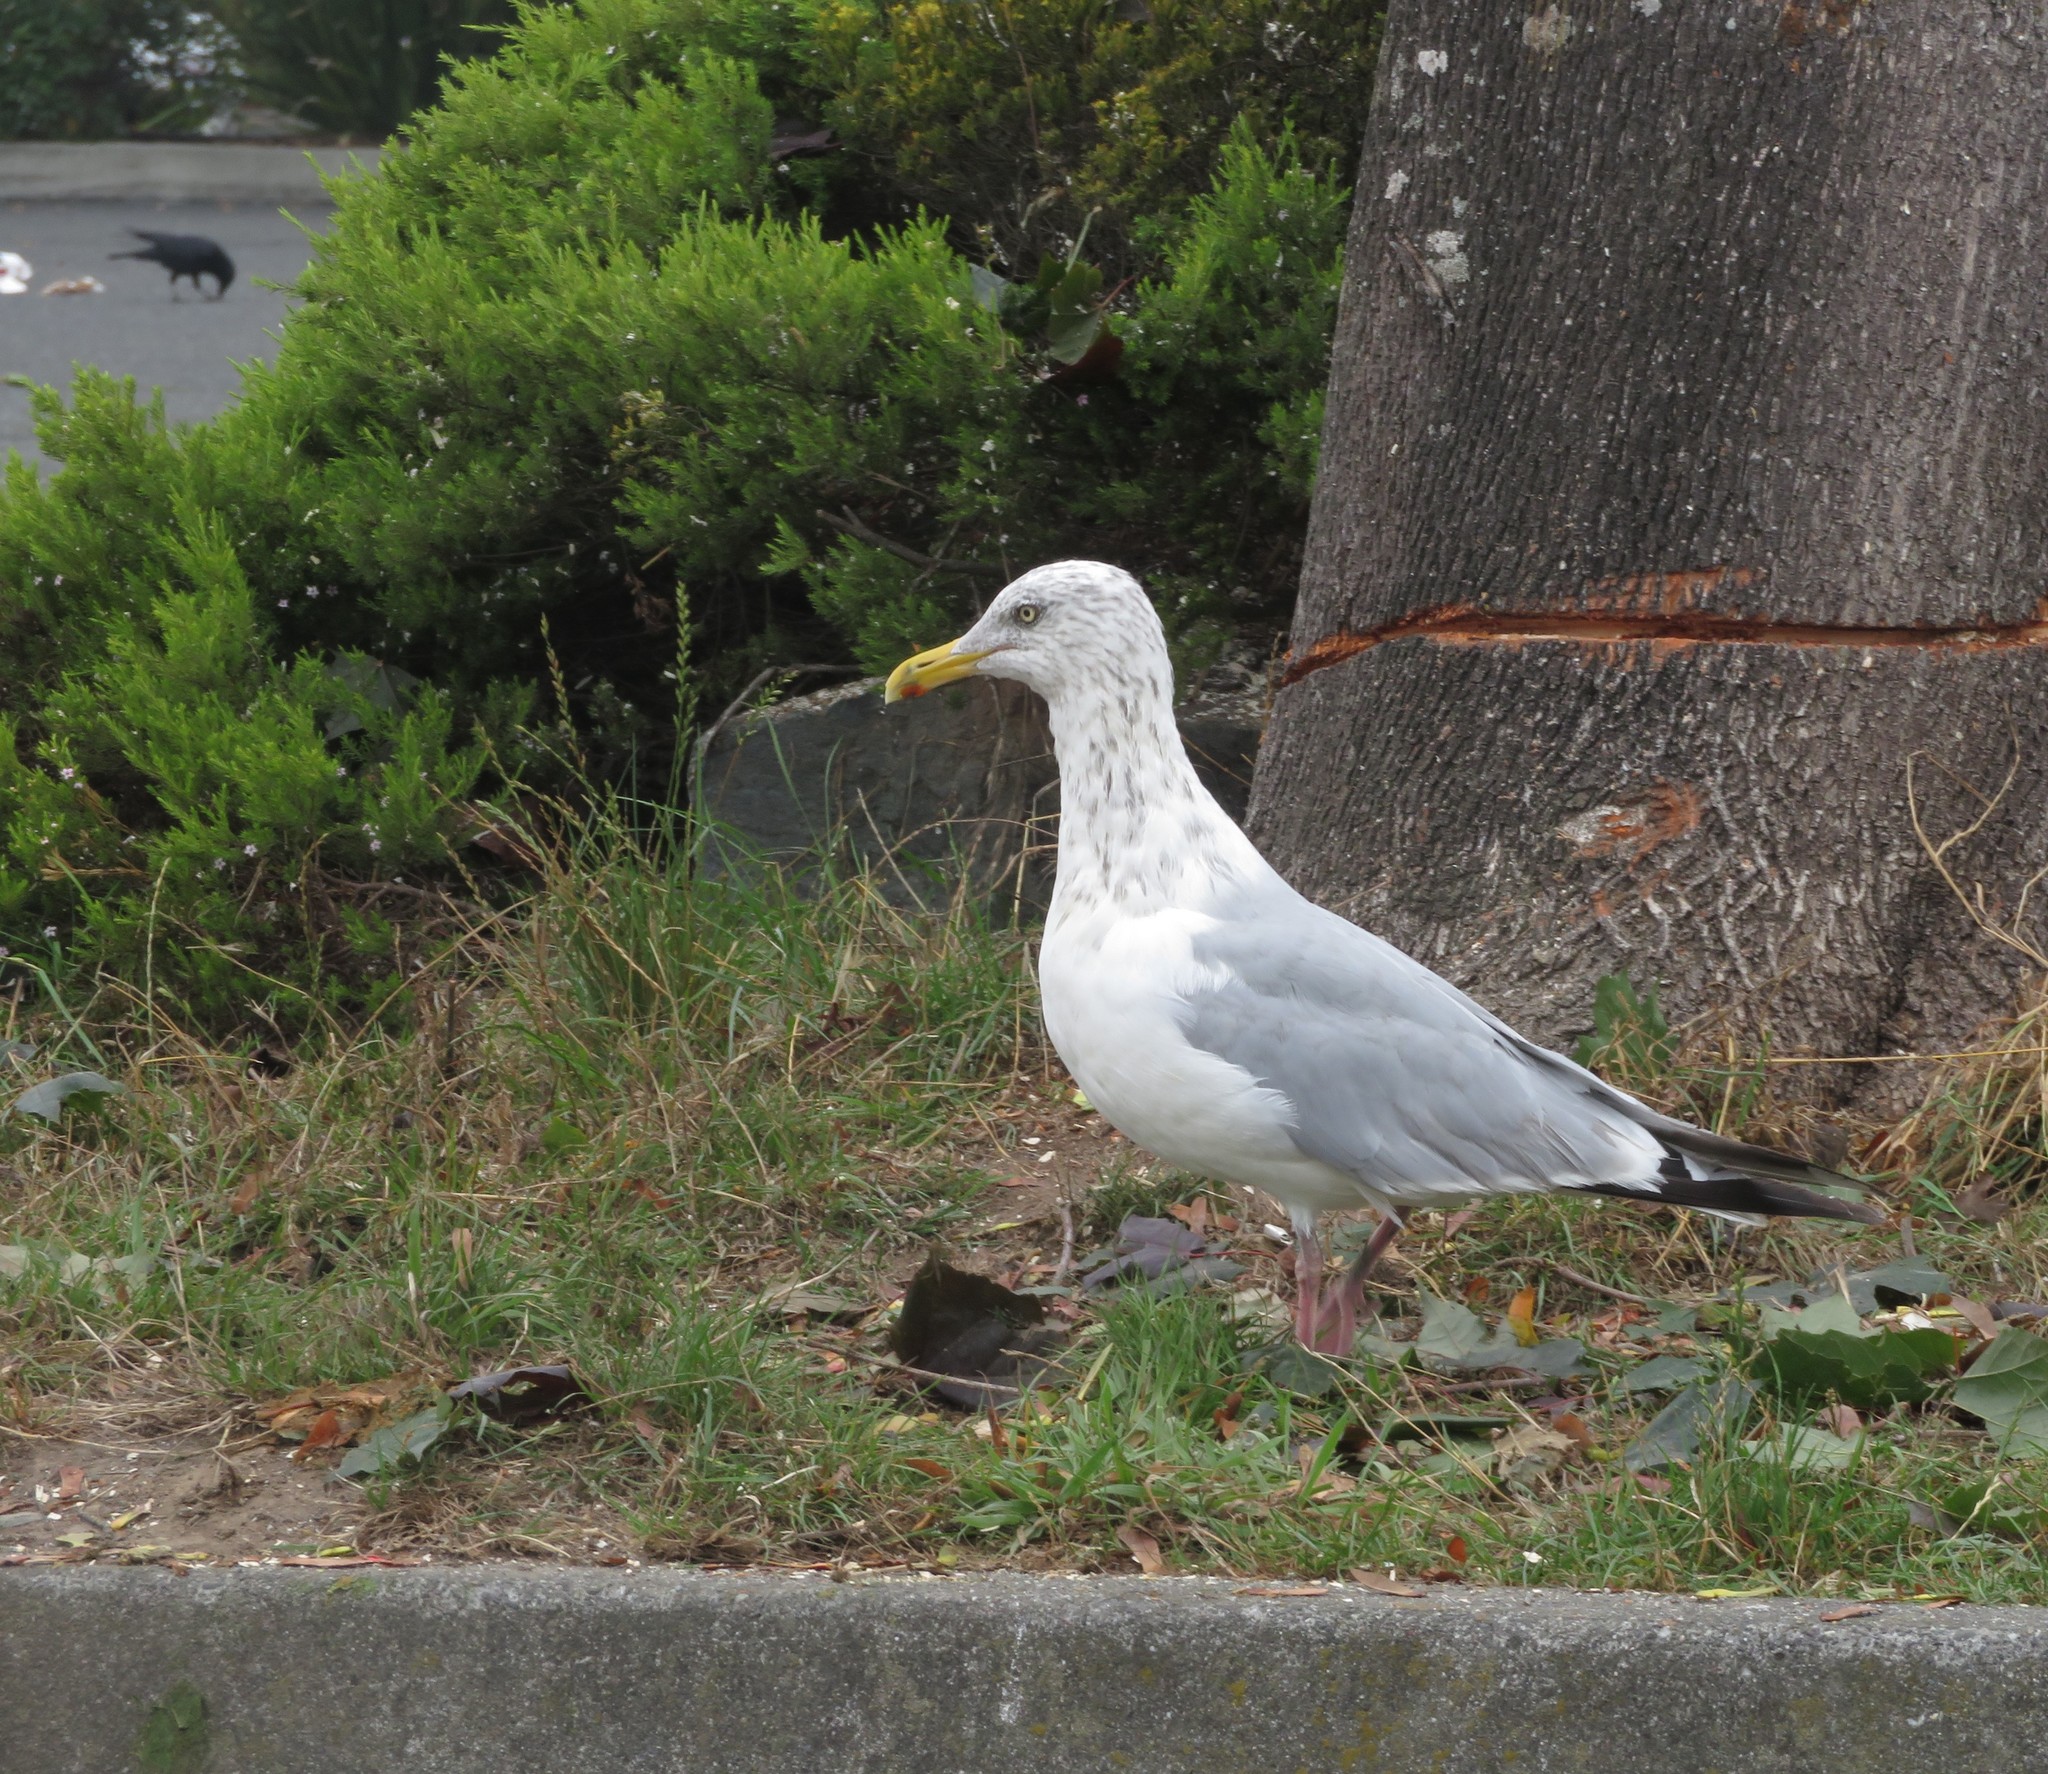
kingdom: Animalia
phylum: Chordata
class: Aves
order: Charadriiformes
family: Laridae
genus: Larus
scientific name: Larus argentatus
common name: Herring gull
